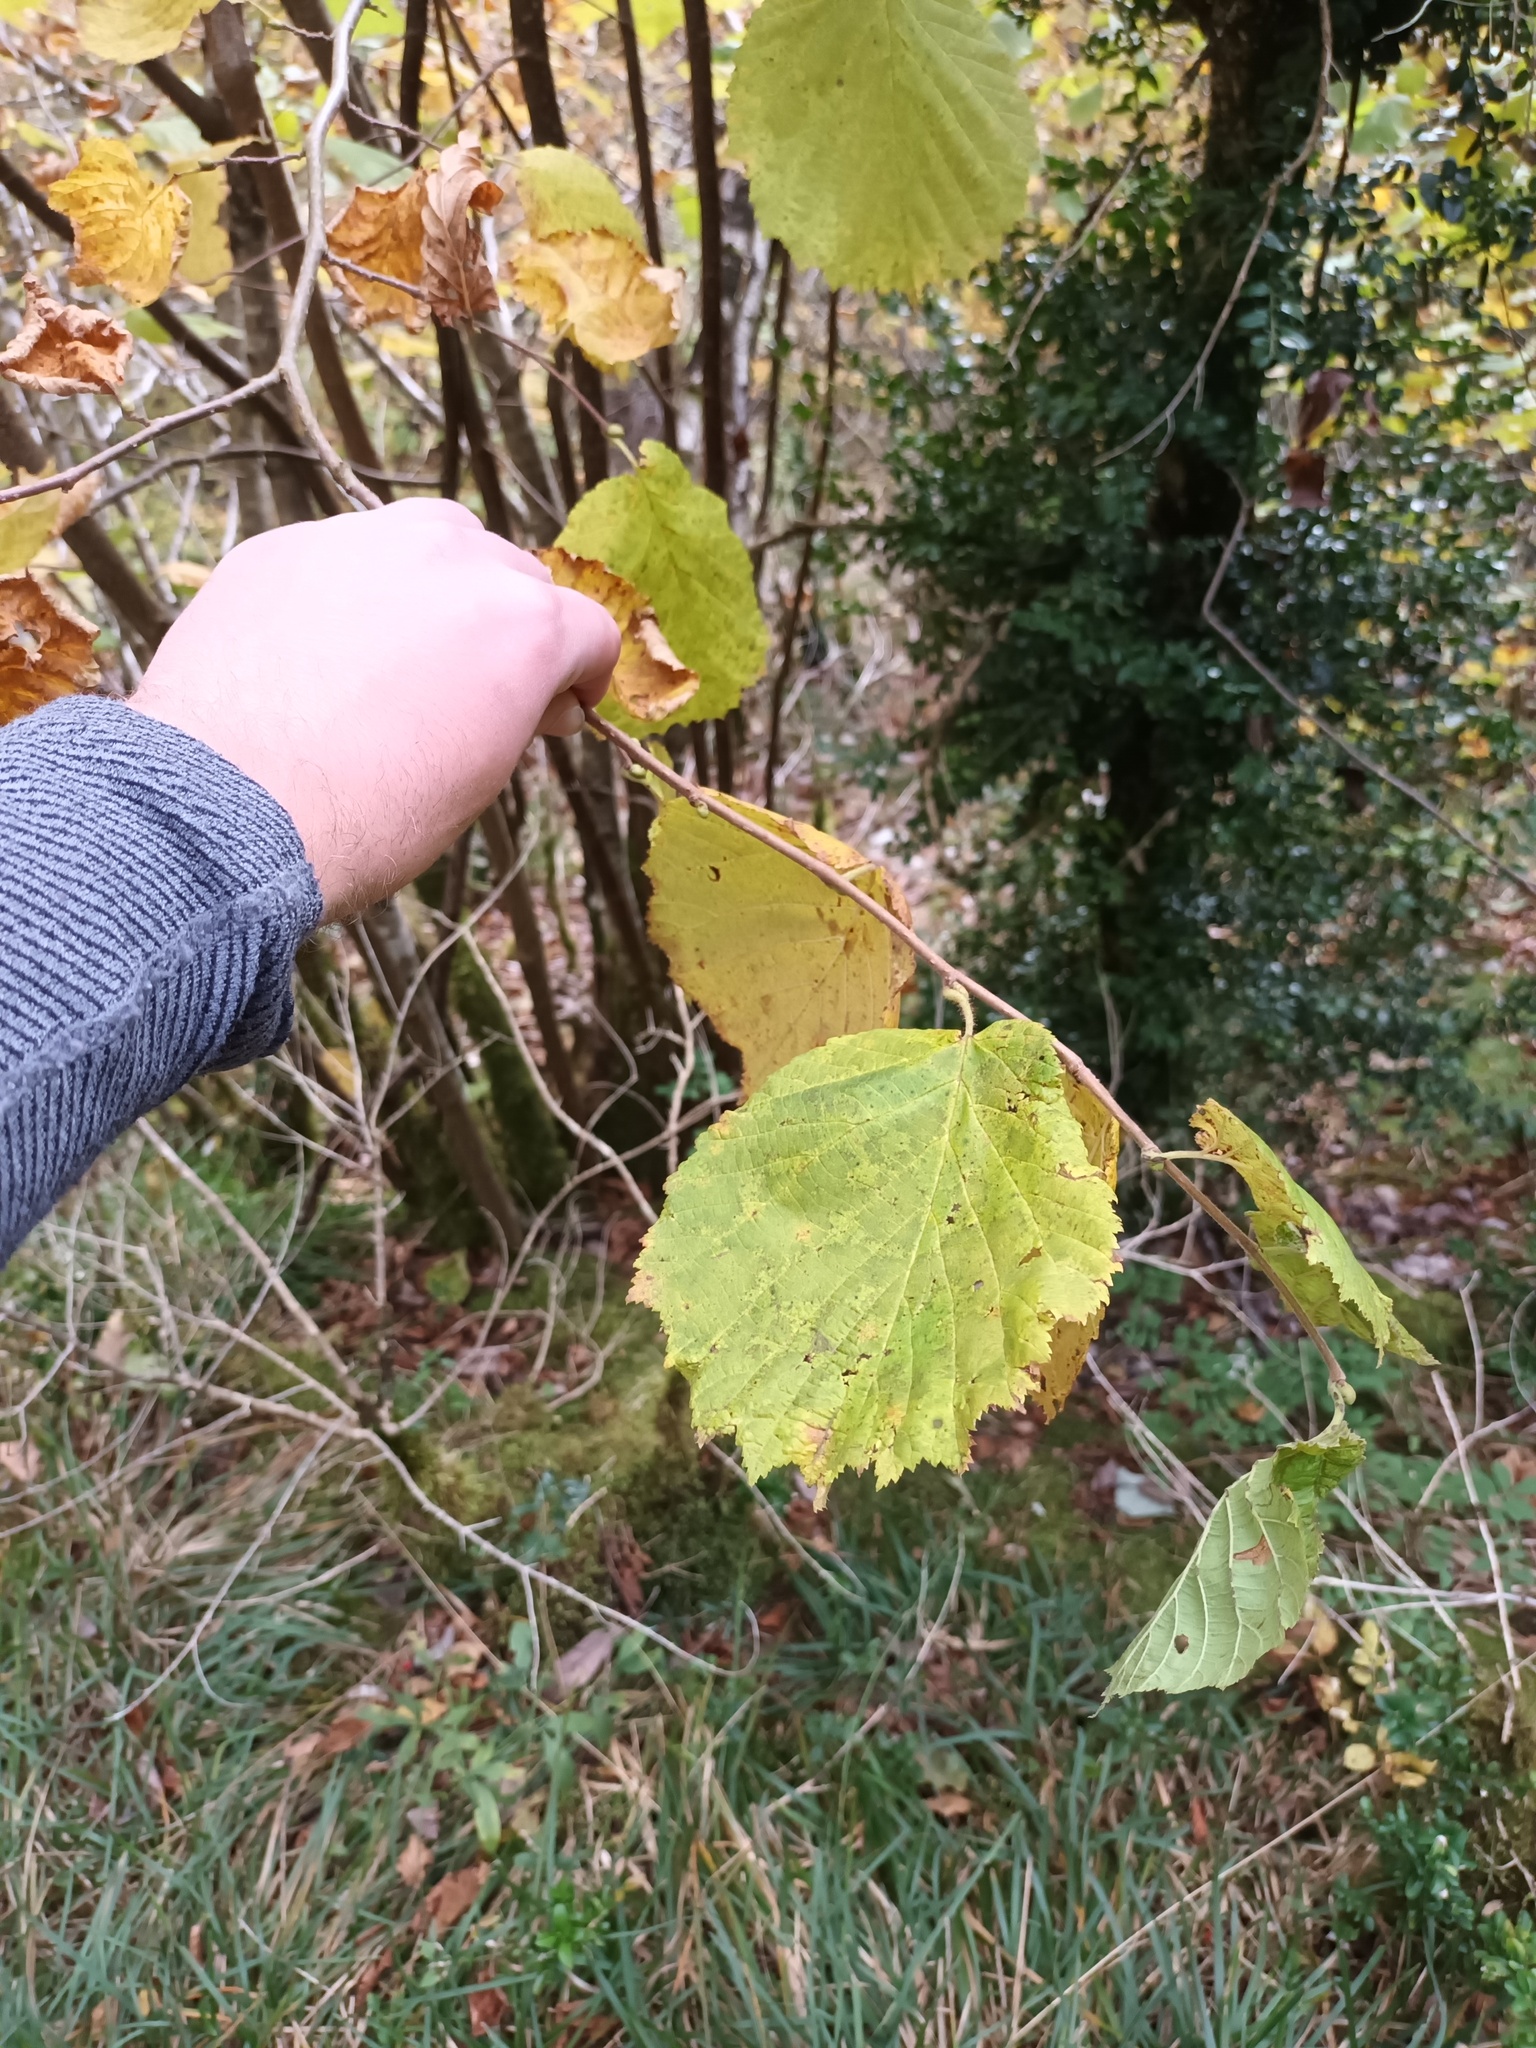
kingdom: Plantae
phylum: Tracheophyta
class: Magnoliopsida
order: Fagales
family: Betulaceae
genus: Corylus
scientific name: Corylus avellana
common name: European hazel
